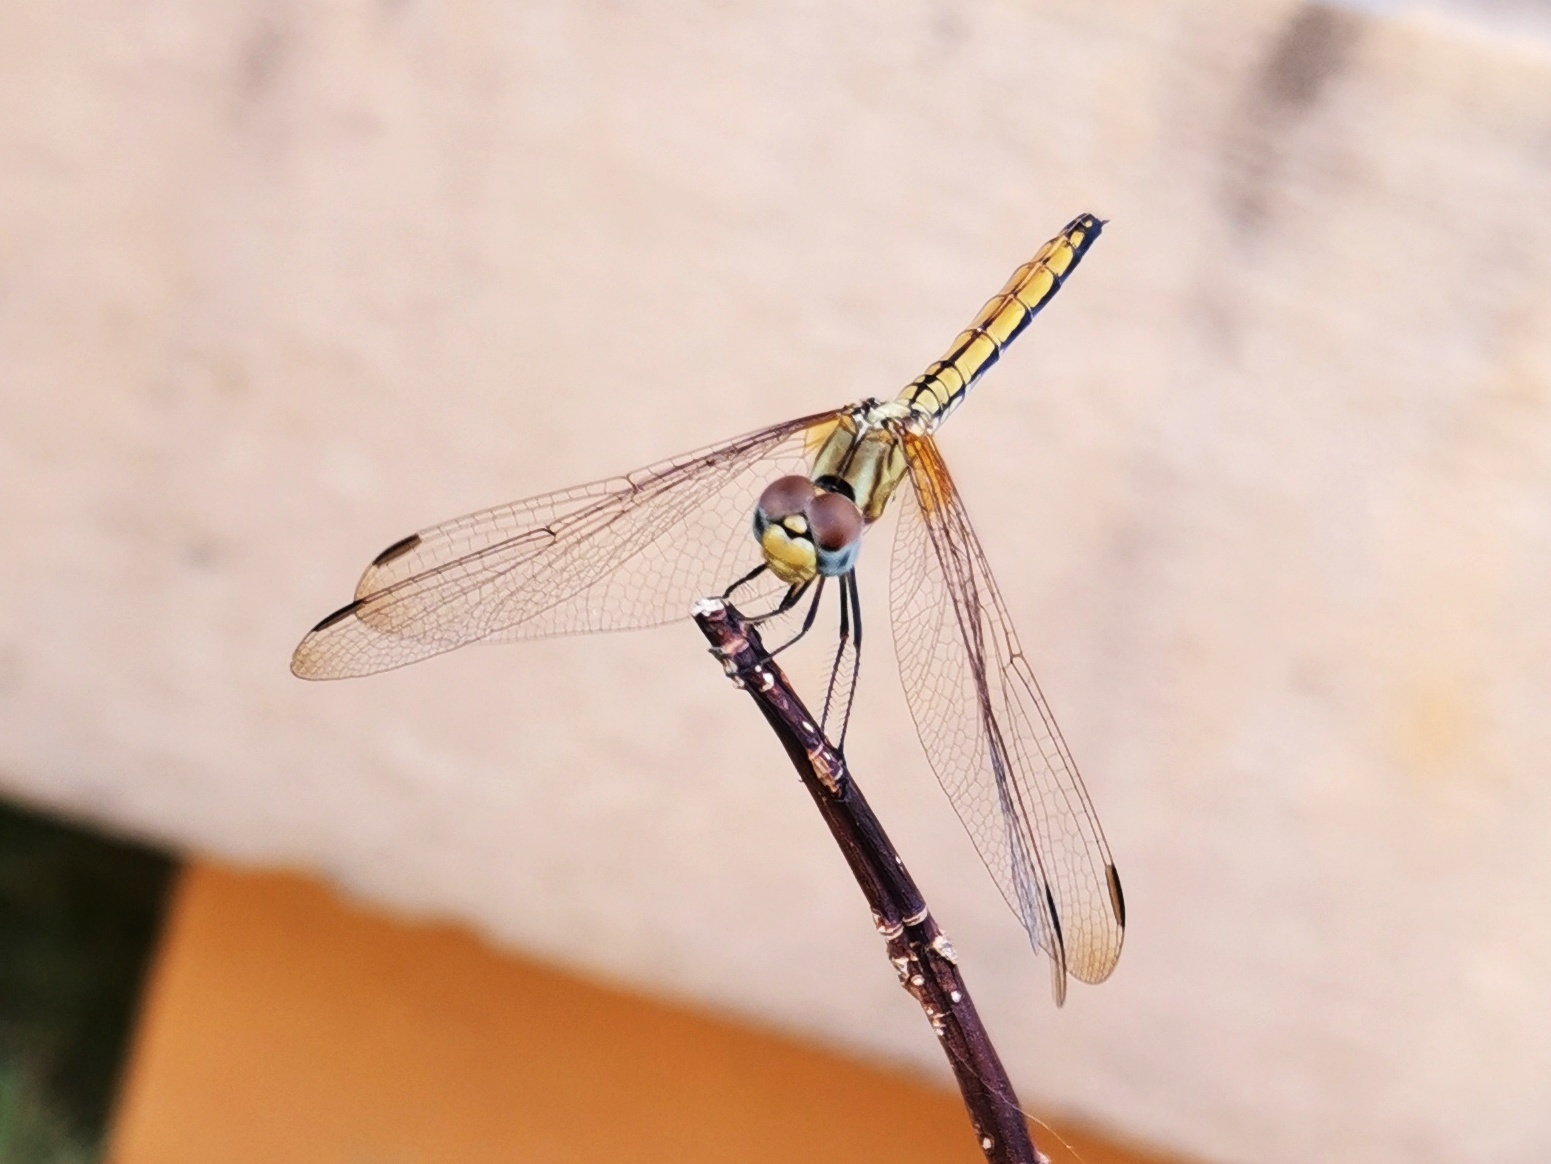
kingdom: Animalia
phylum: Arthropoda
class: Insecta
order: Odonata
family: Libellulidae
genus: Trithemis
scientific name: Trithemis aurora
